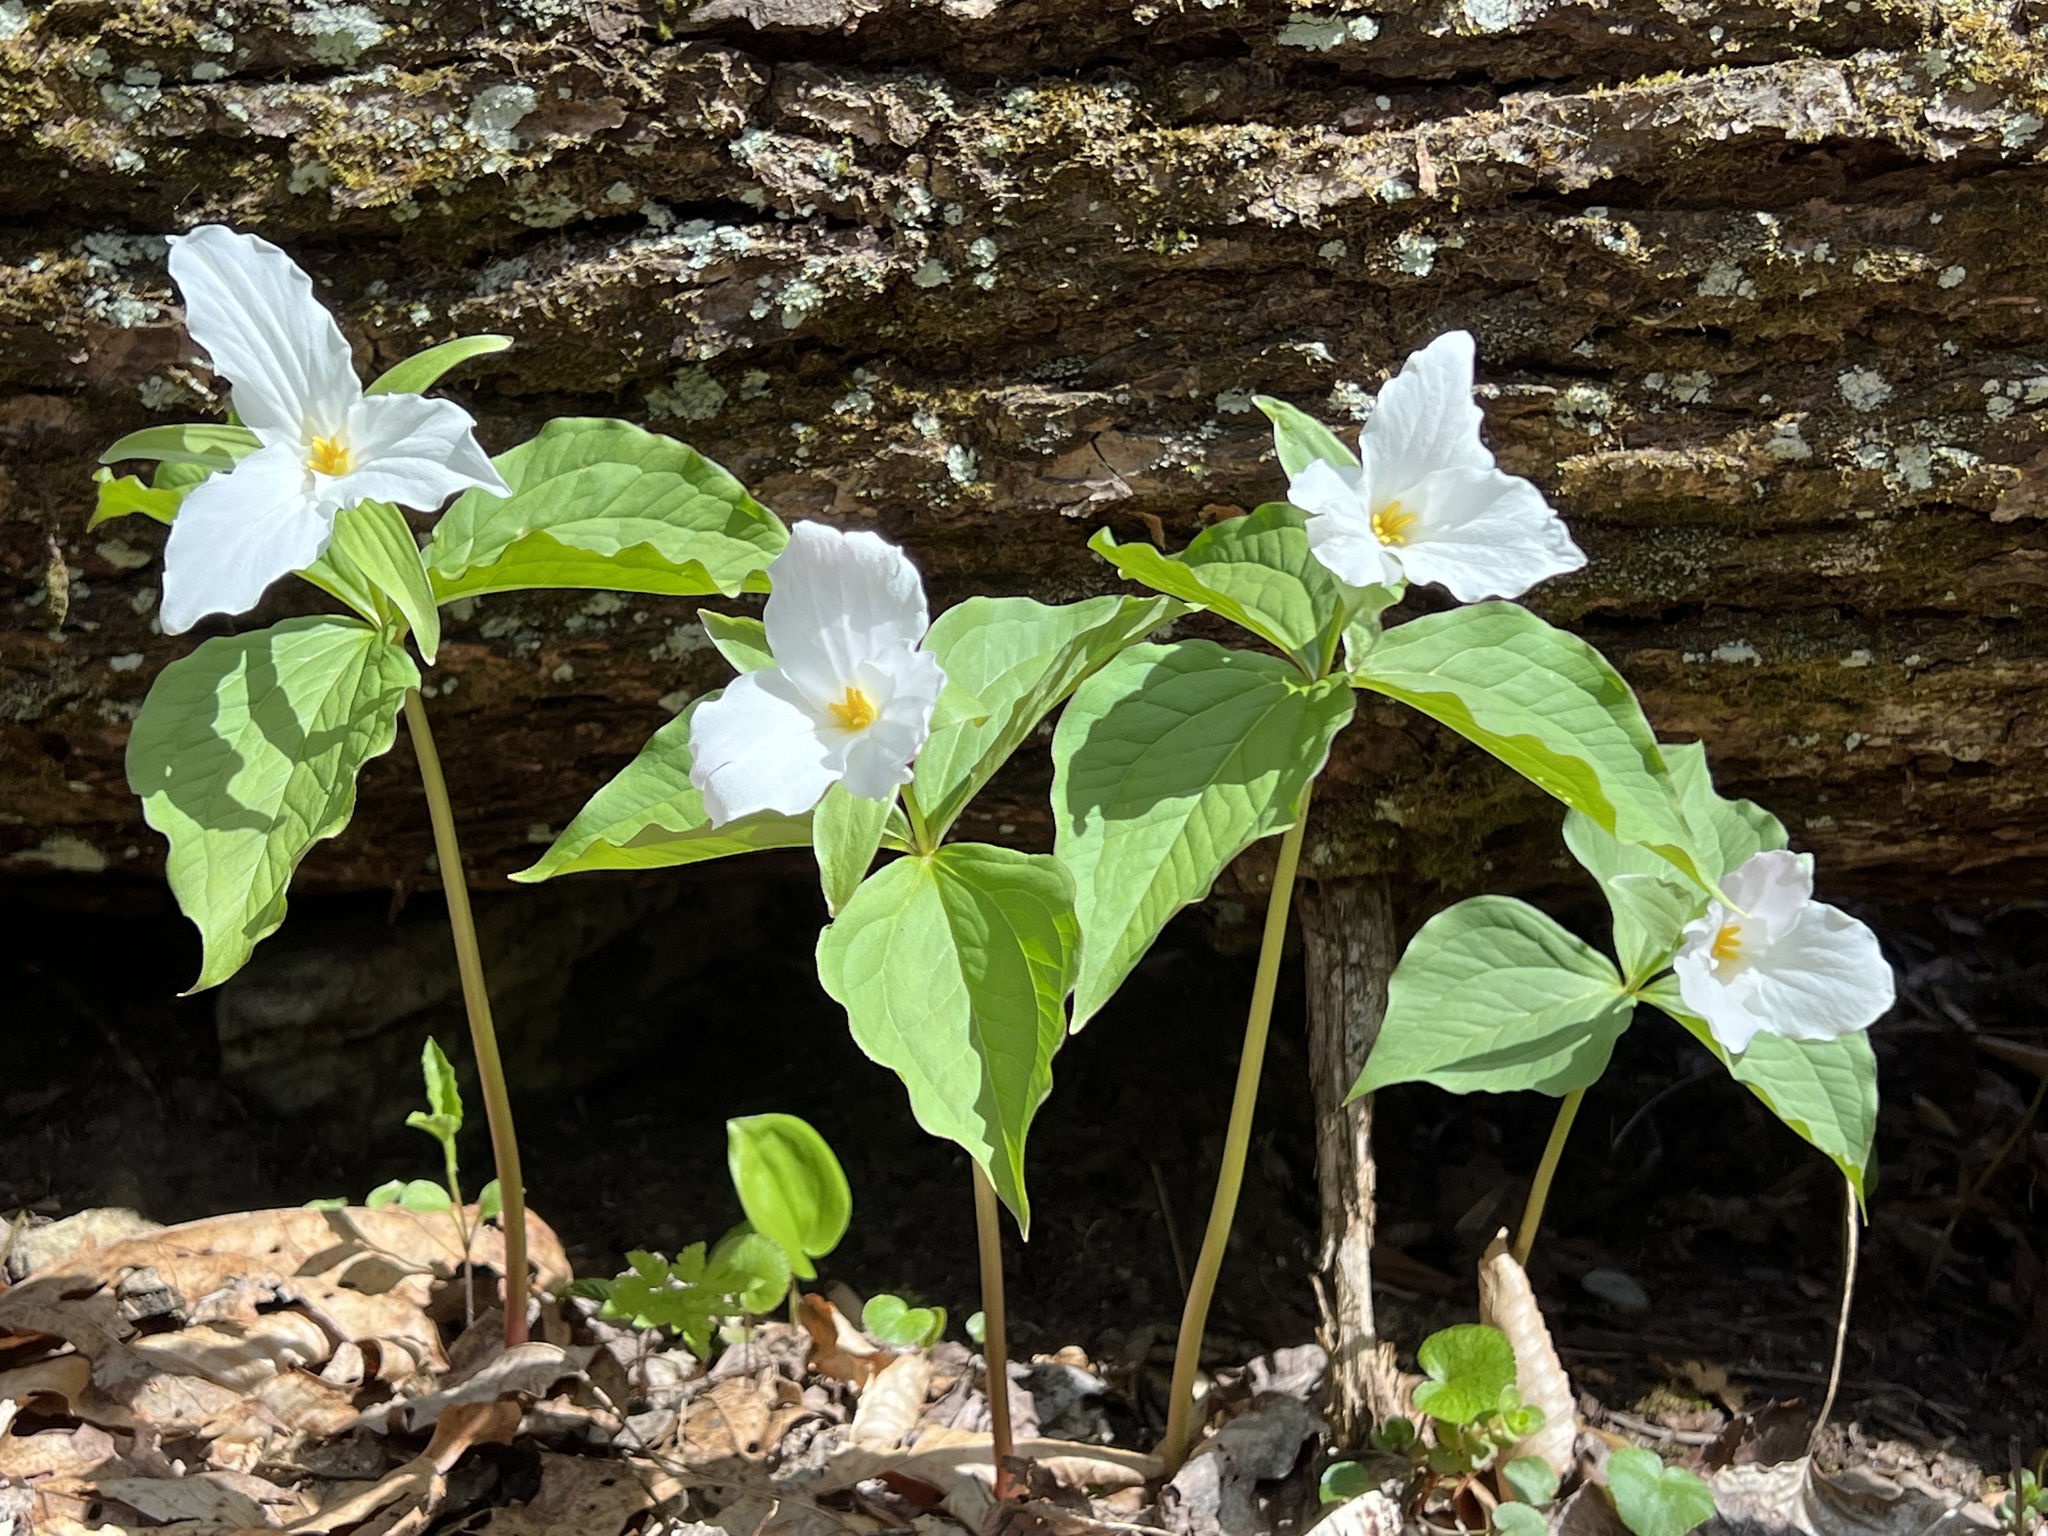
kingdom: Plantae
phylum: Tracheophyta
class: Liliopsida
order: Liliales
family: Melanthiaceae
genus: Trillium
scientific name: Trillium grandiflorum
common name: Great white trillium
